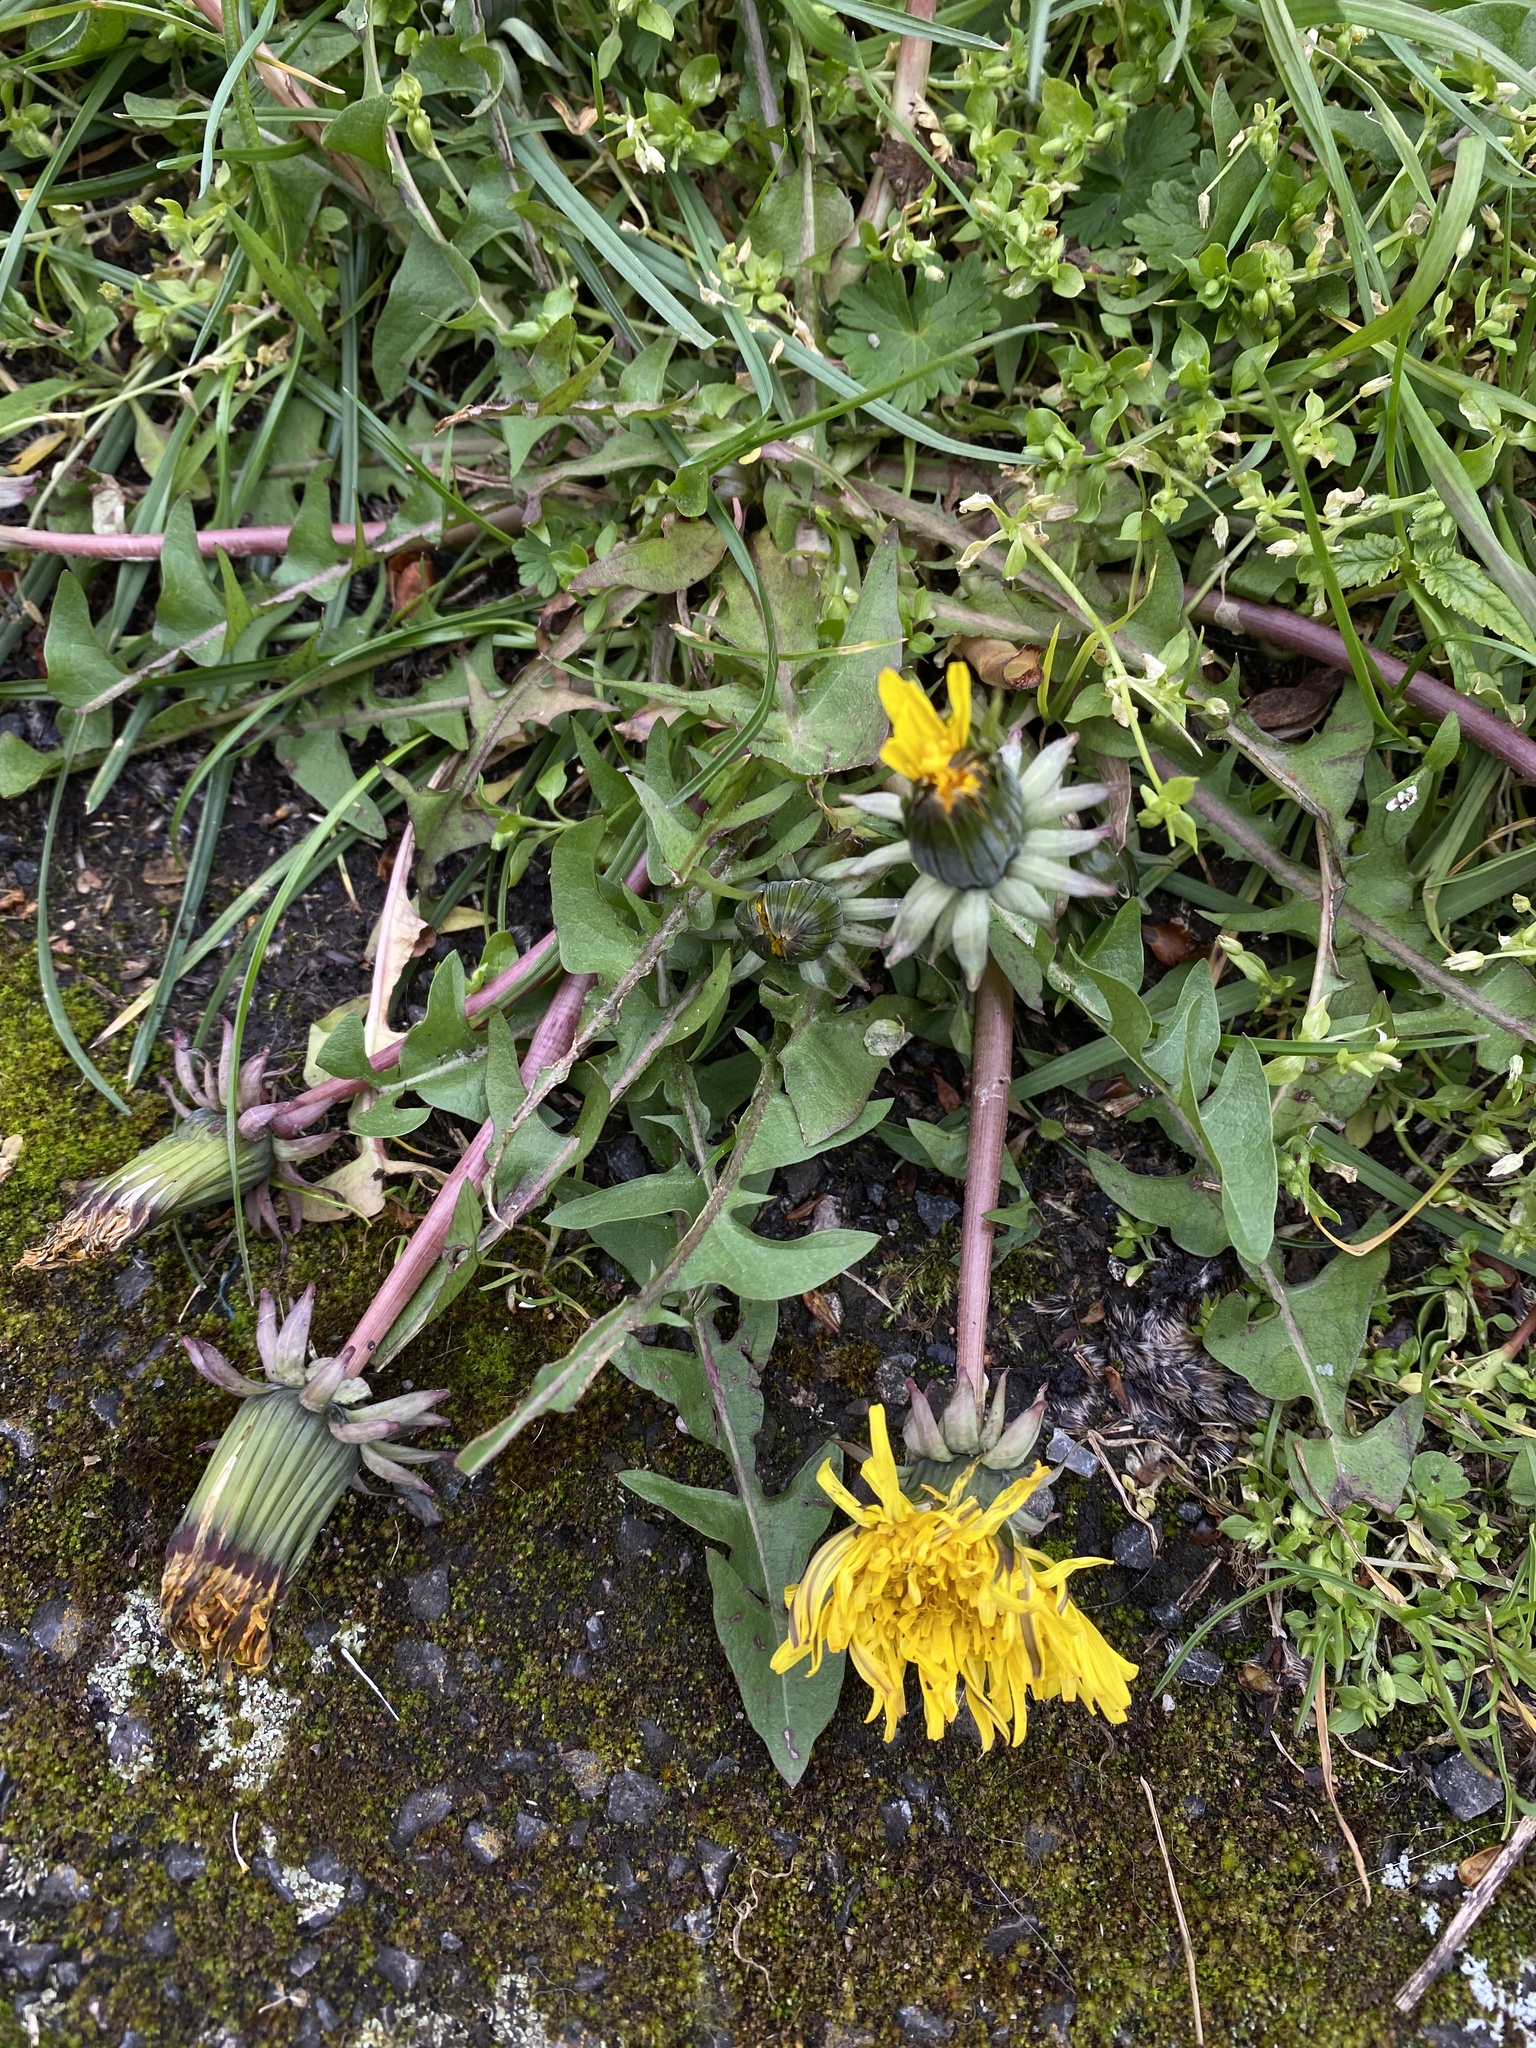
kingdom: Plantae
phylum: Tracheophyta
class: Magnoliopsida
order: Asterales
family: Asteraceae
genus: Taraxacum
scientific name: Taraxacum officinale
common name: Common dandelion
